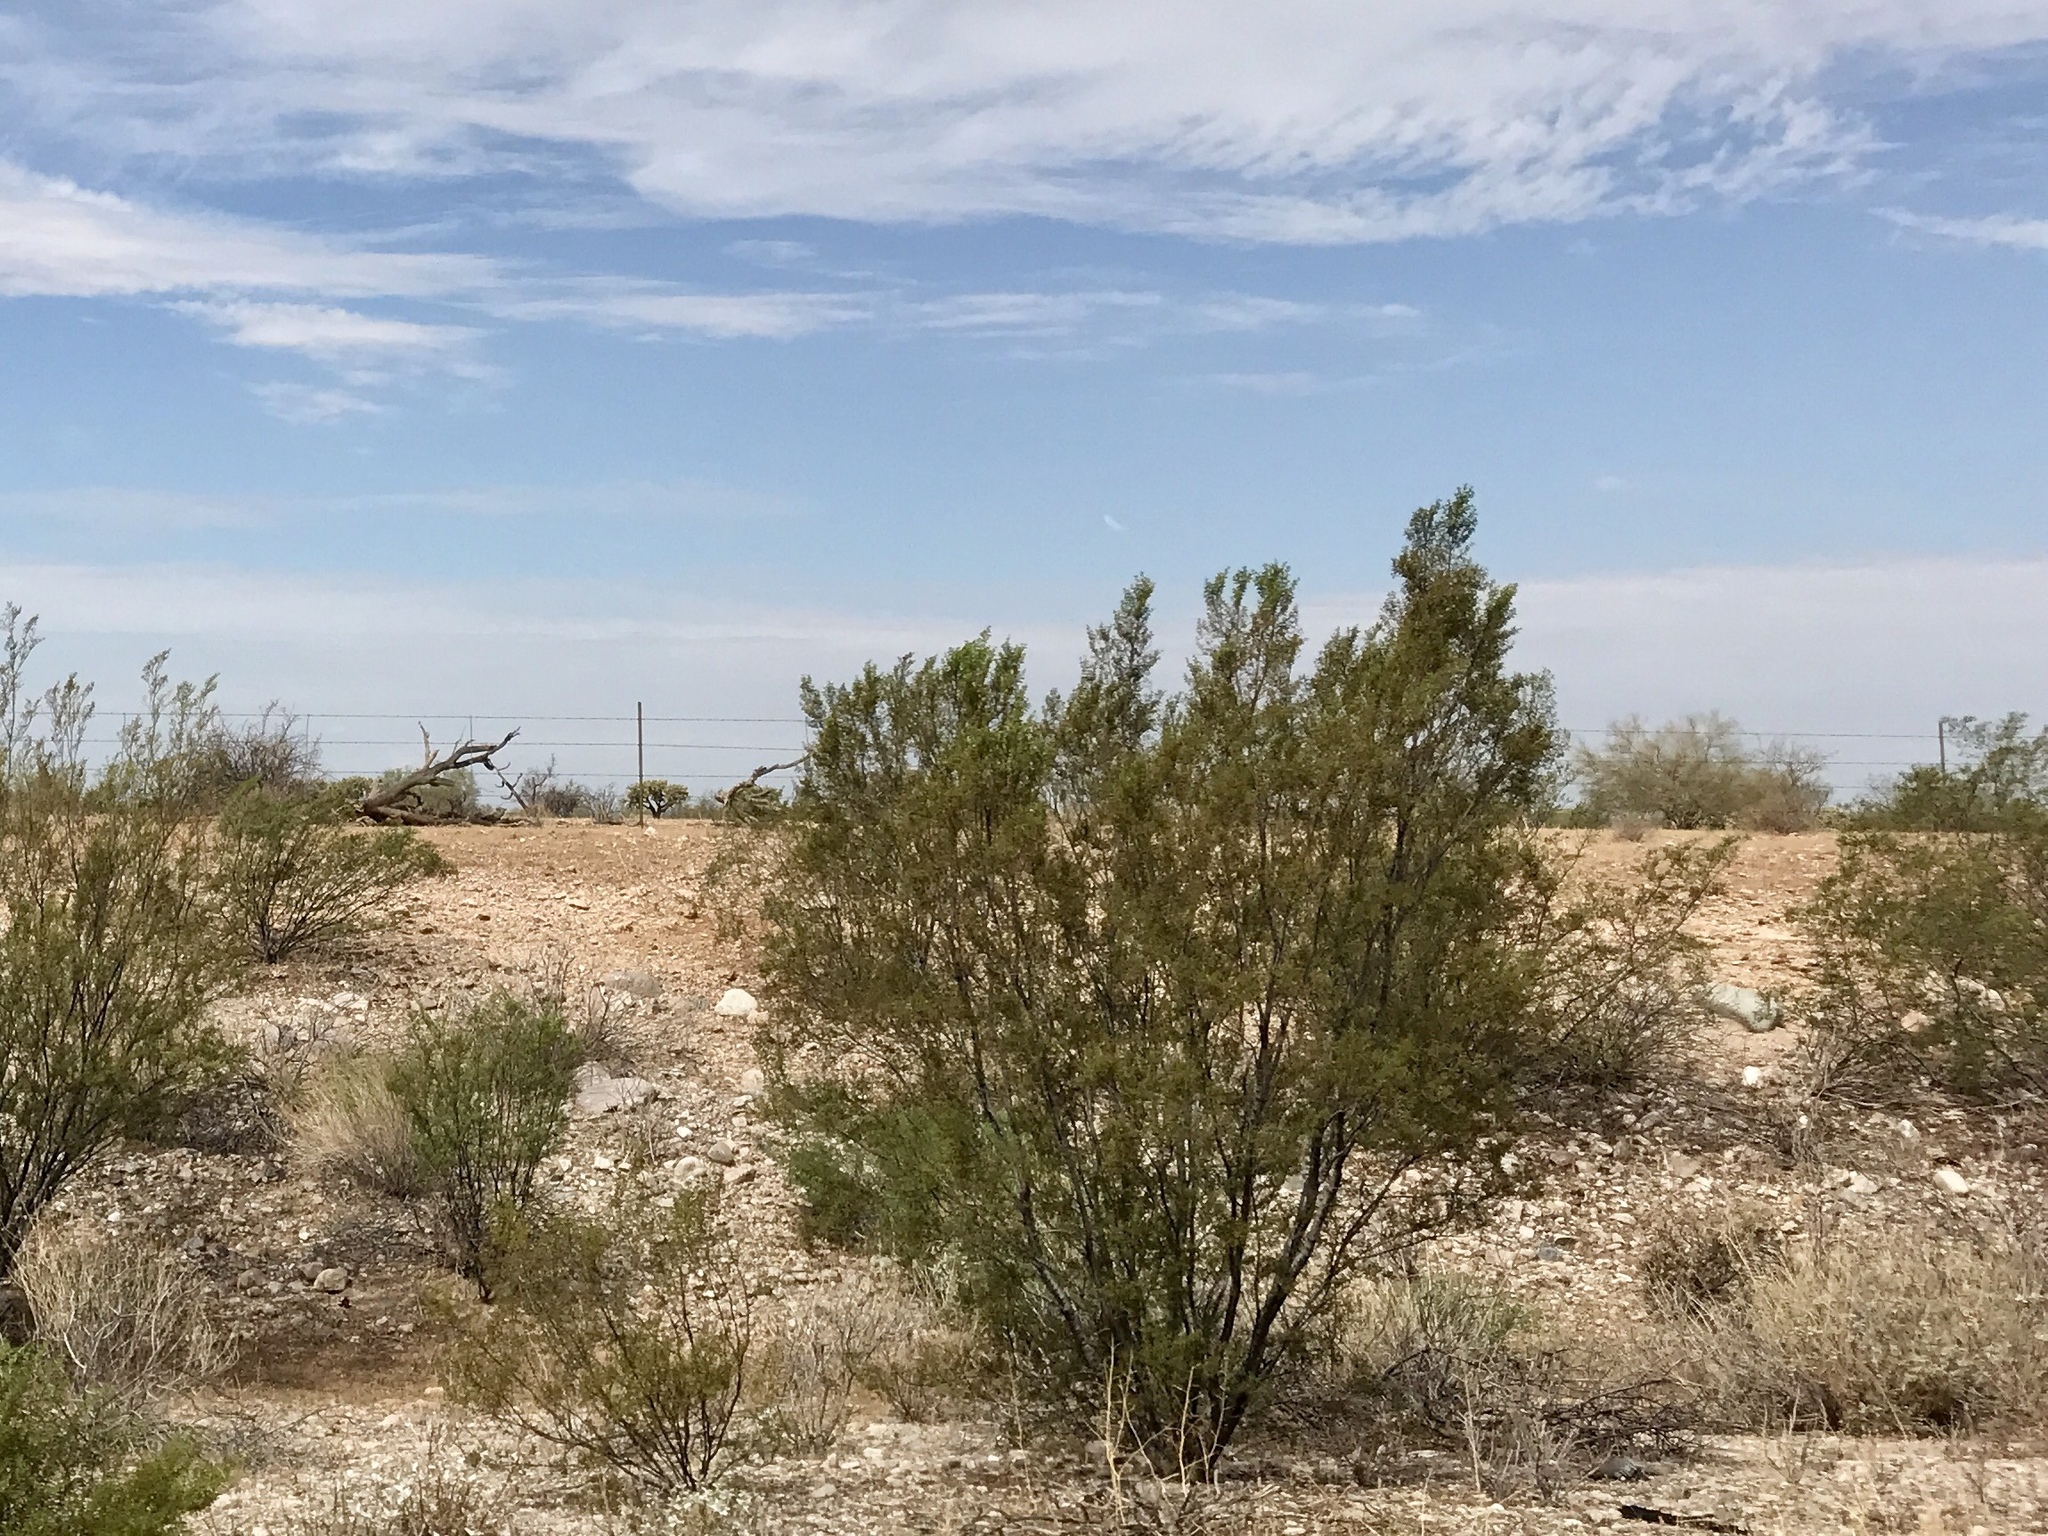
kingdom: Plantae
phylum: Tracheophyta
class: Magnoliopsida
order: Zygophyllales
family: Zygophyllaceae
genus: Larrea
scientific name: Larrea tridentata
